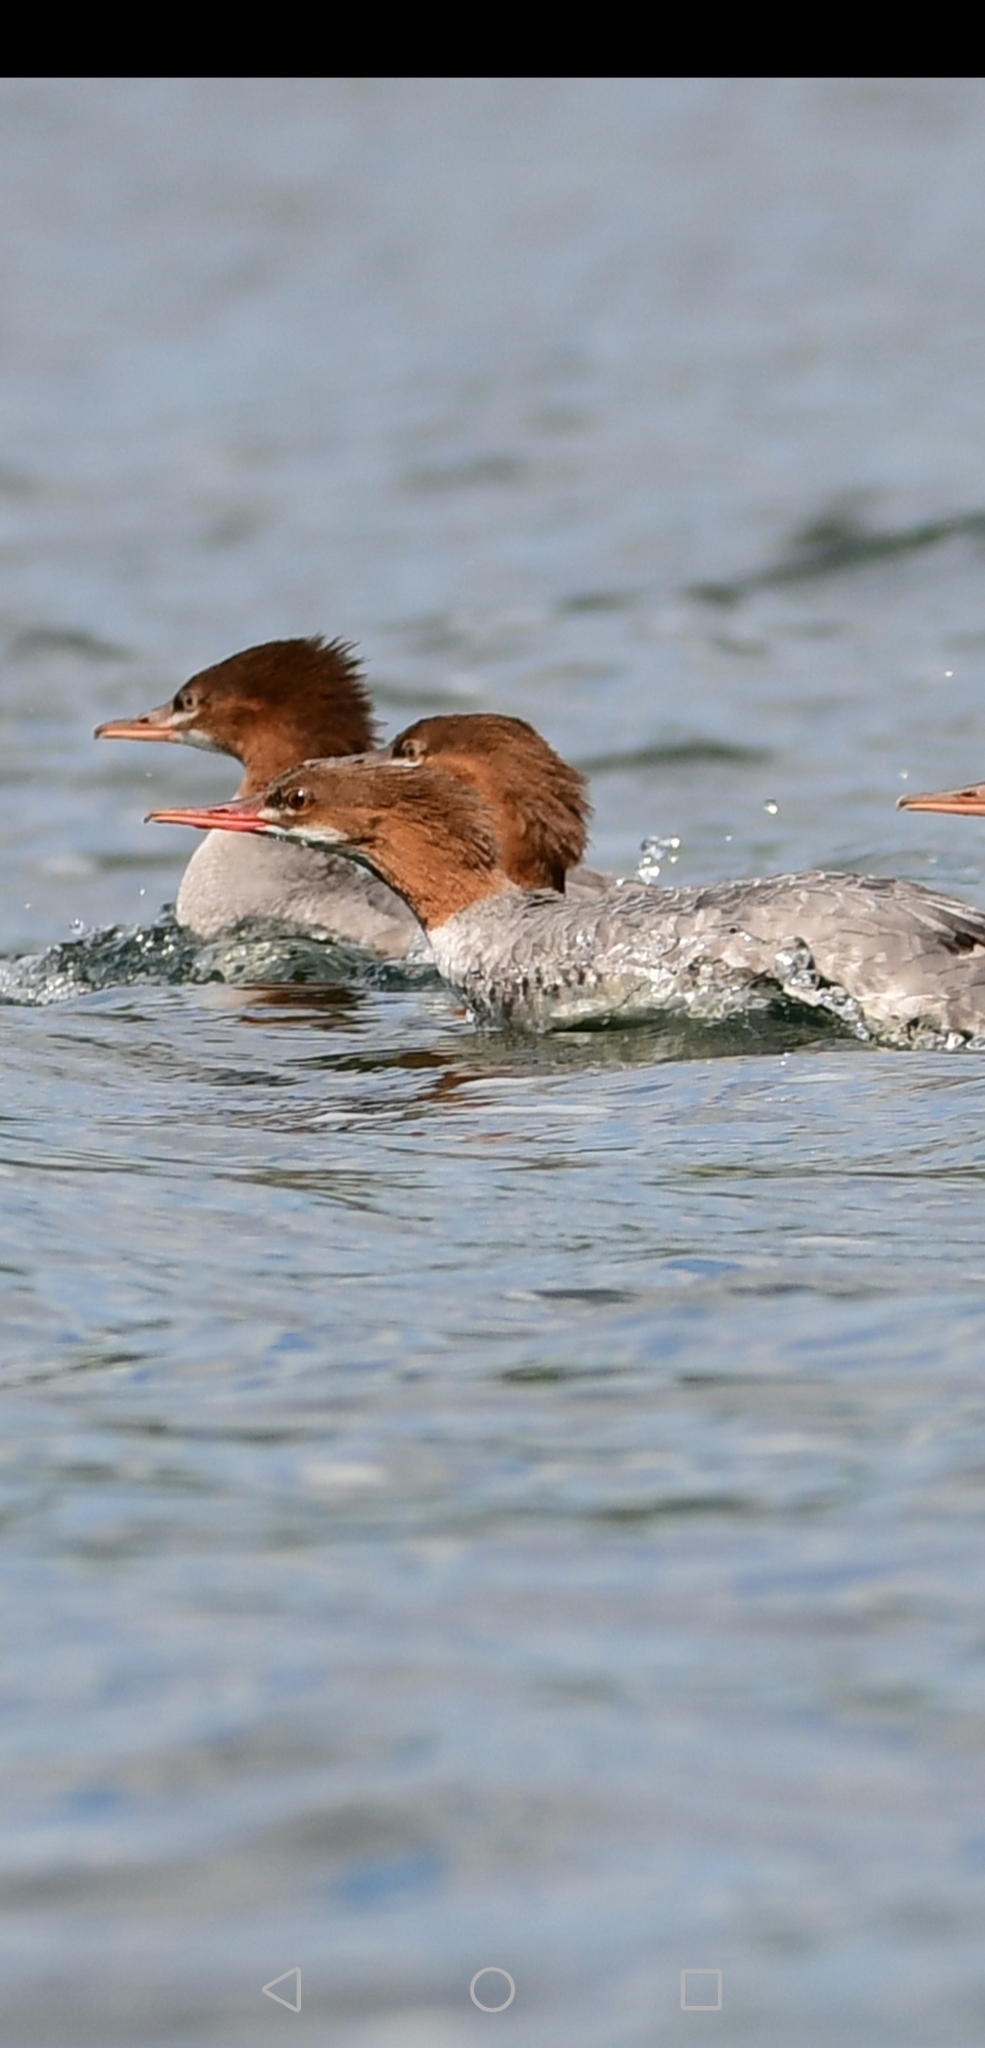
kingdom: Animalia
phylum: Chordata
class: Aves
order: Anseriformes
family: Anatidae
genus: Mergus
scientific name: Mergus merganser
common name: Common merganser
